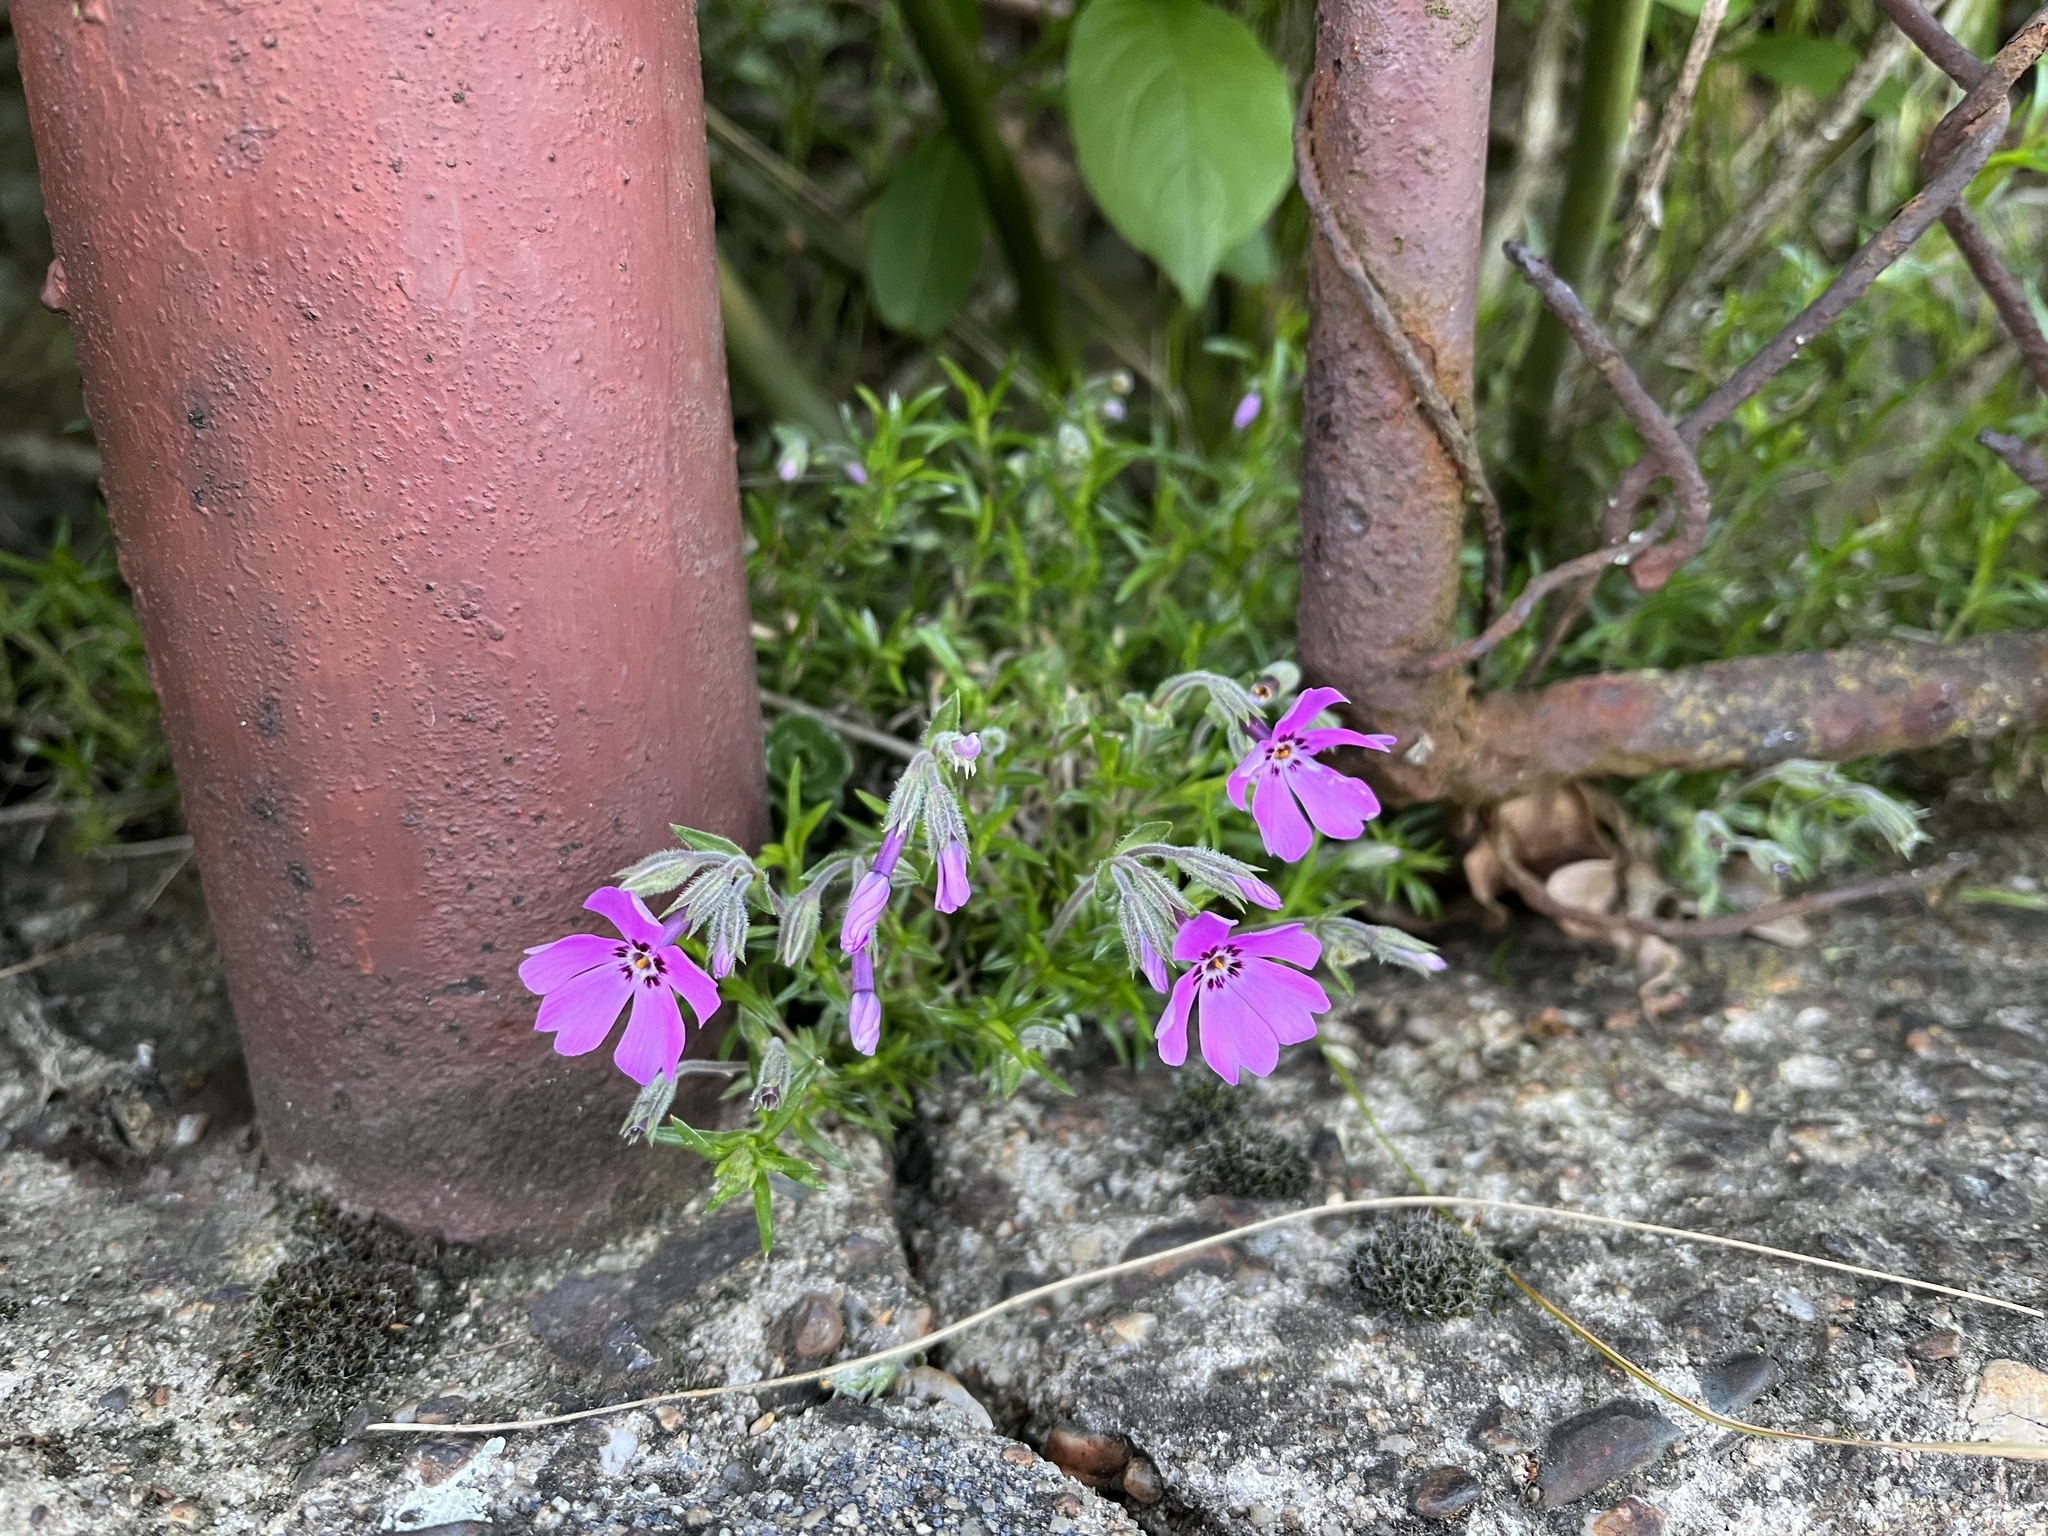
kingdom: Plantae
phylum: Tracheophyta
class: Magnoliopsida
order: Ericales
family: Polemoniaceae
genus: Phlox
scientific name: Phlox subulata
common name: Moss phlox
